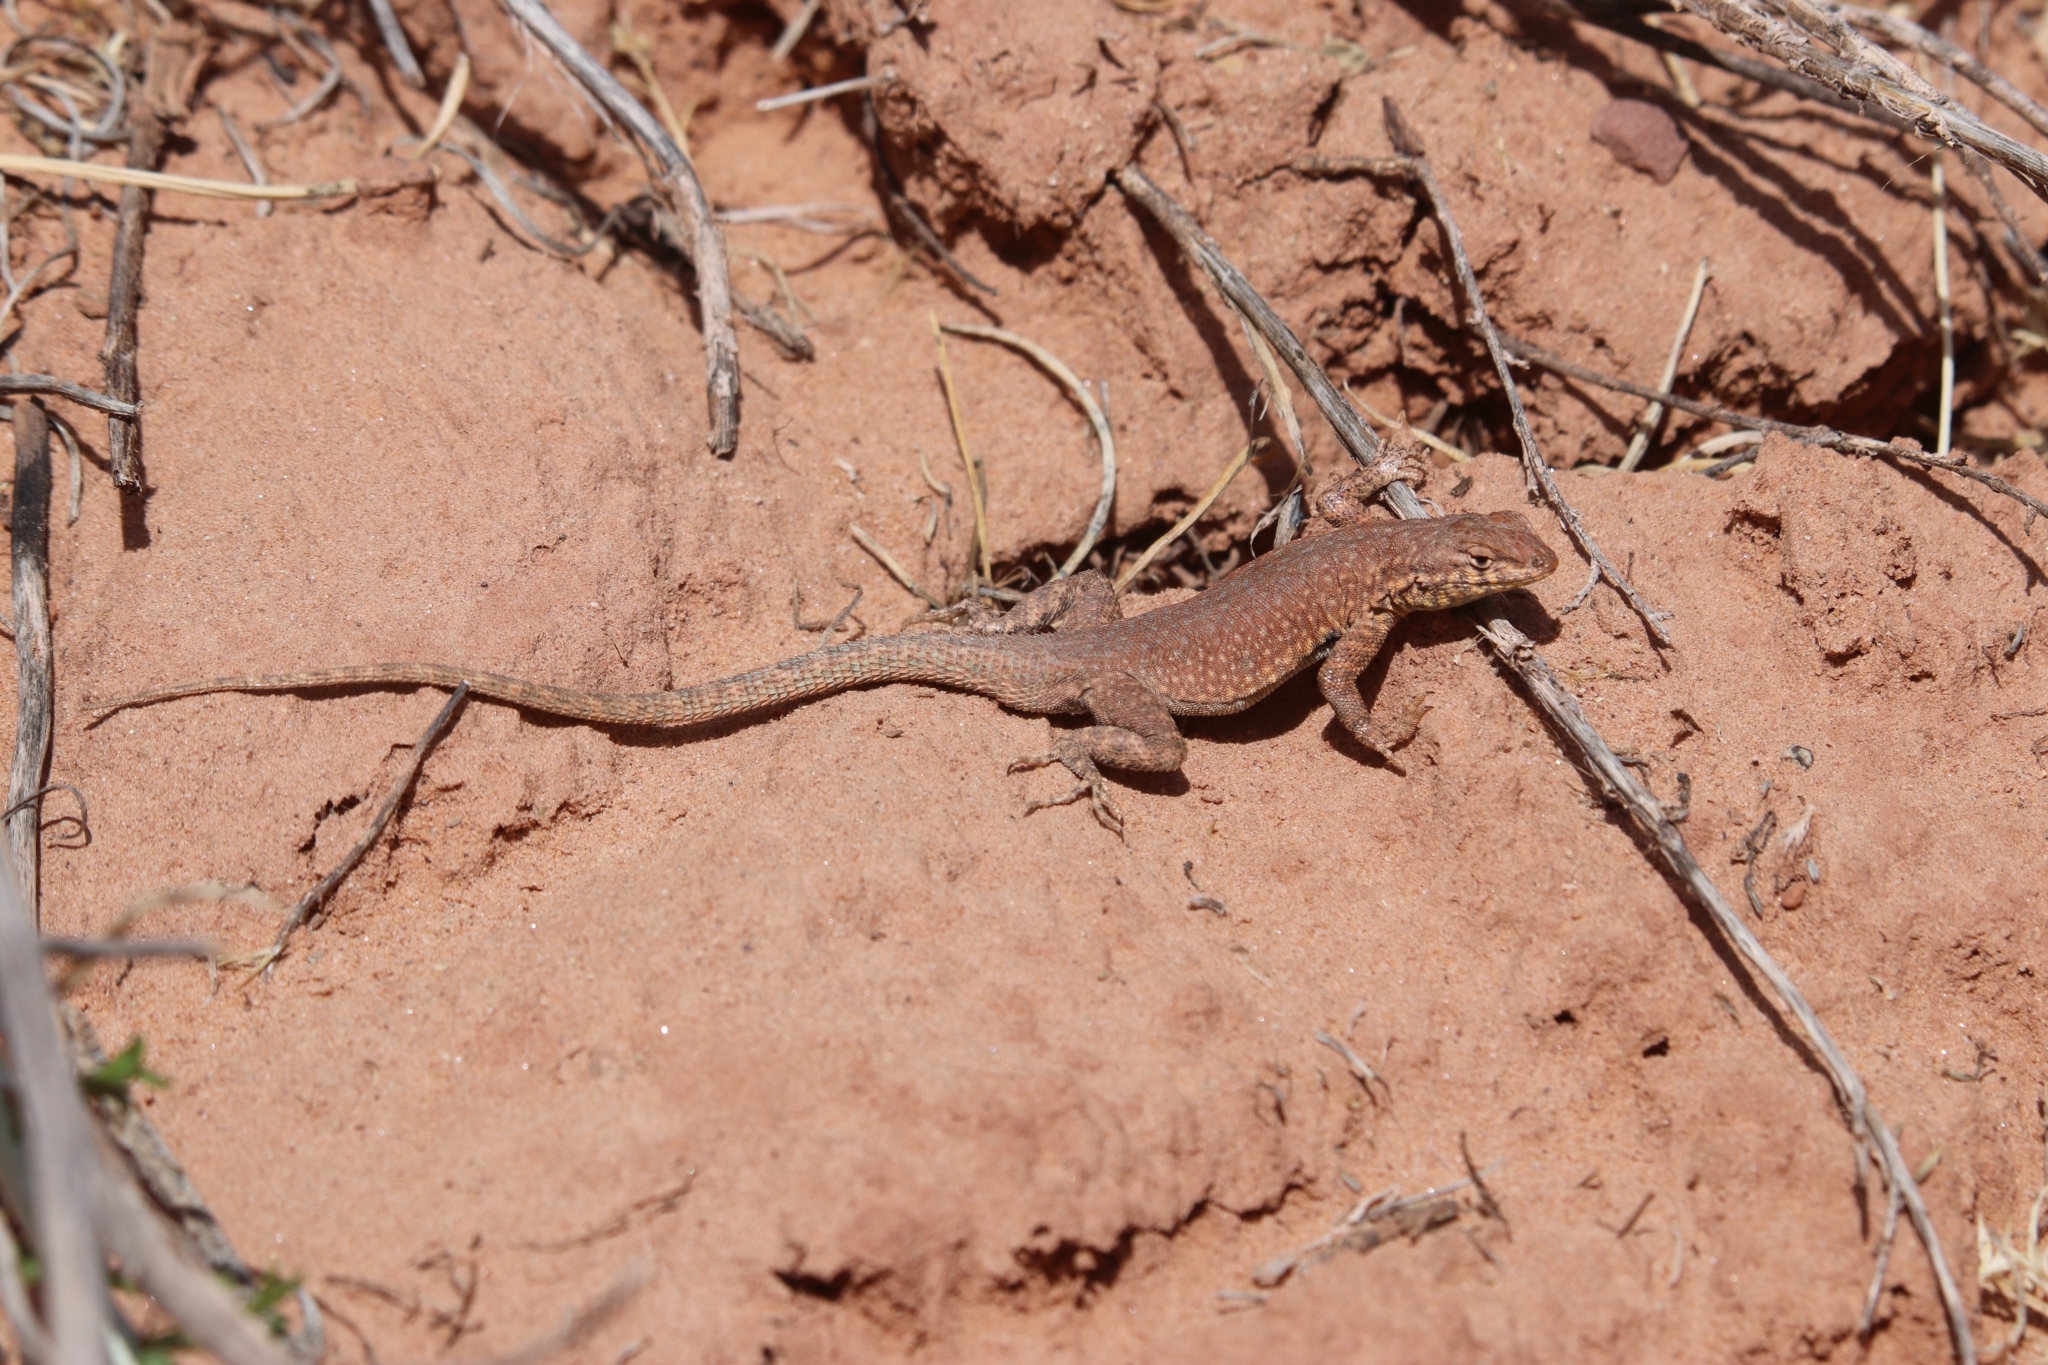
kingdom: Animalia
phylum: Chordata
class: Squamata
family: Phrynosomatidae
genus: Uta
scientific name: Uta stansburiana
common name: Side-blotched lizard
